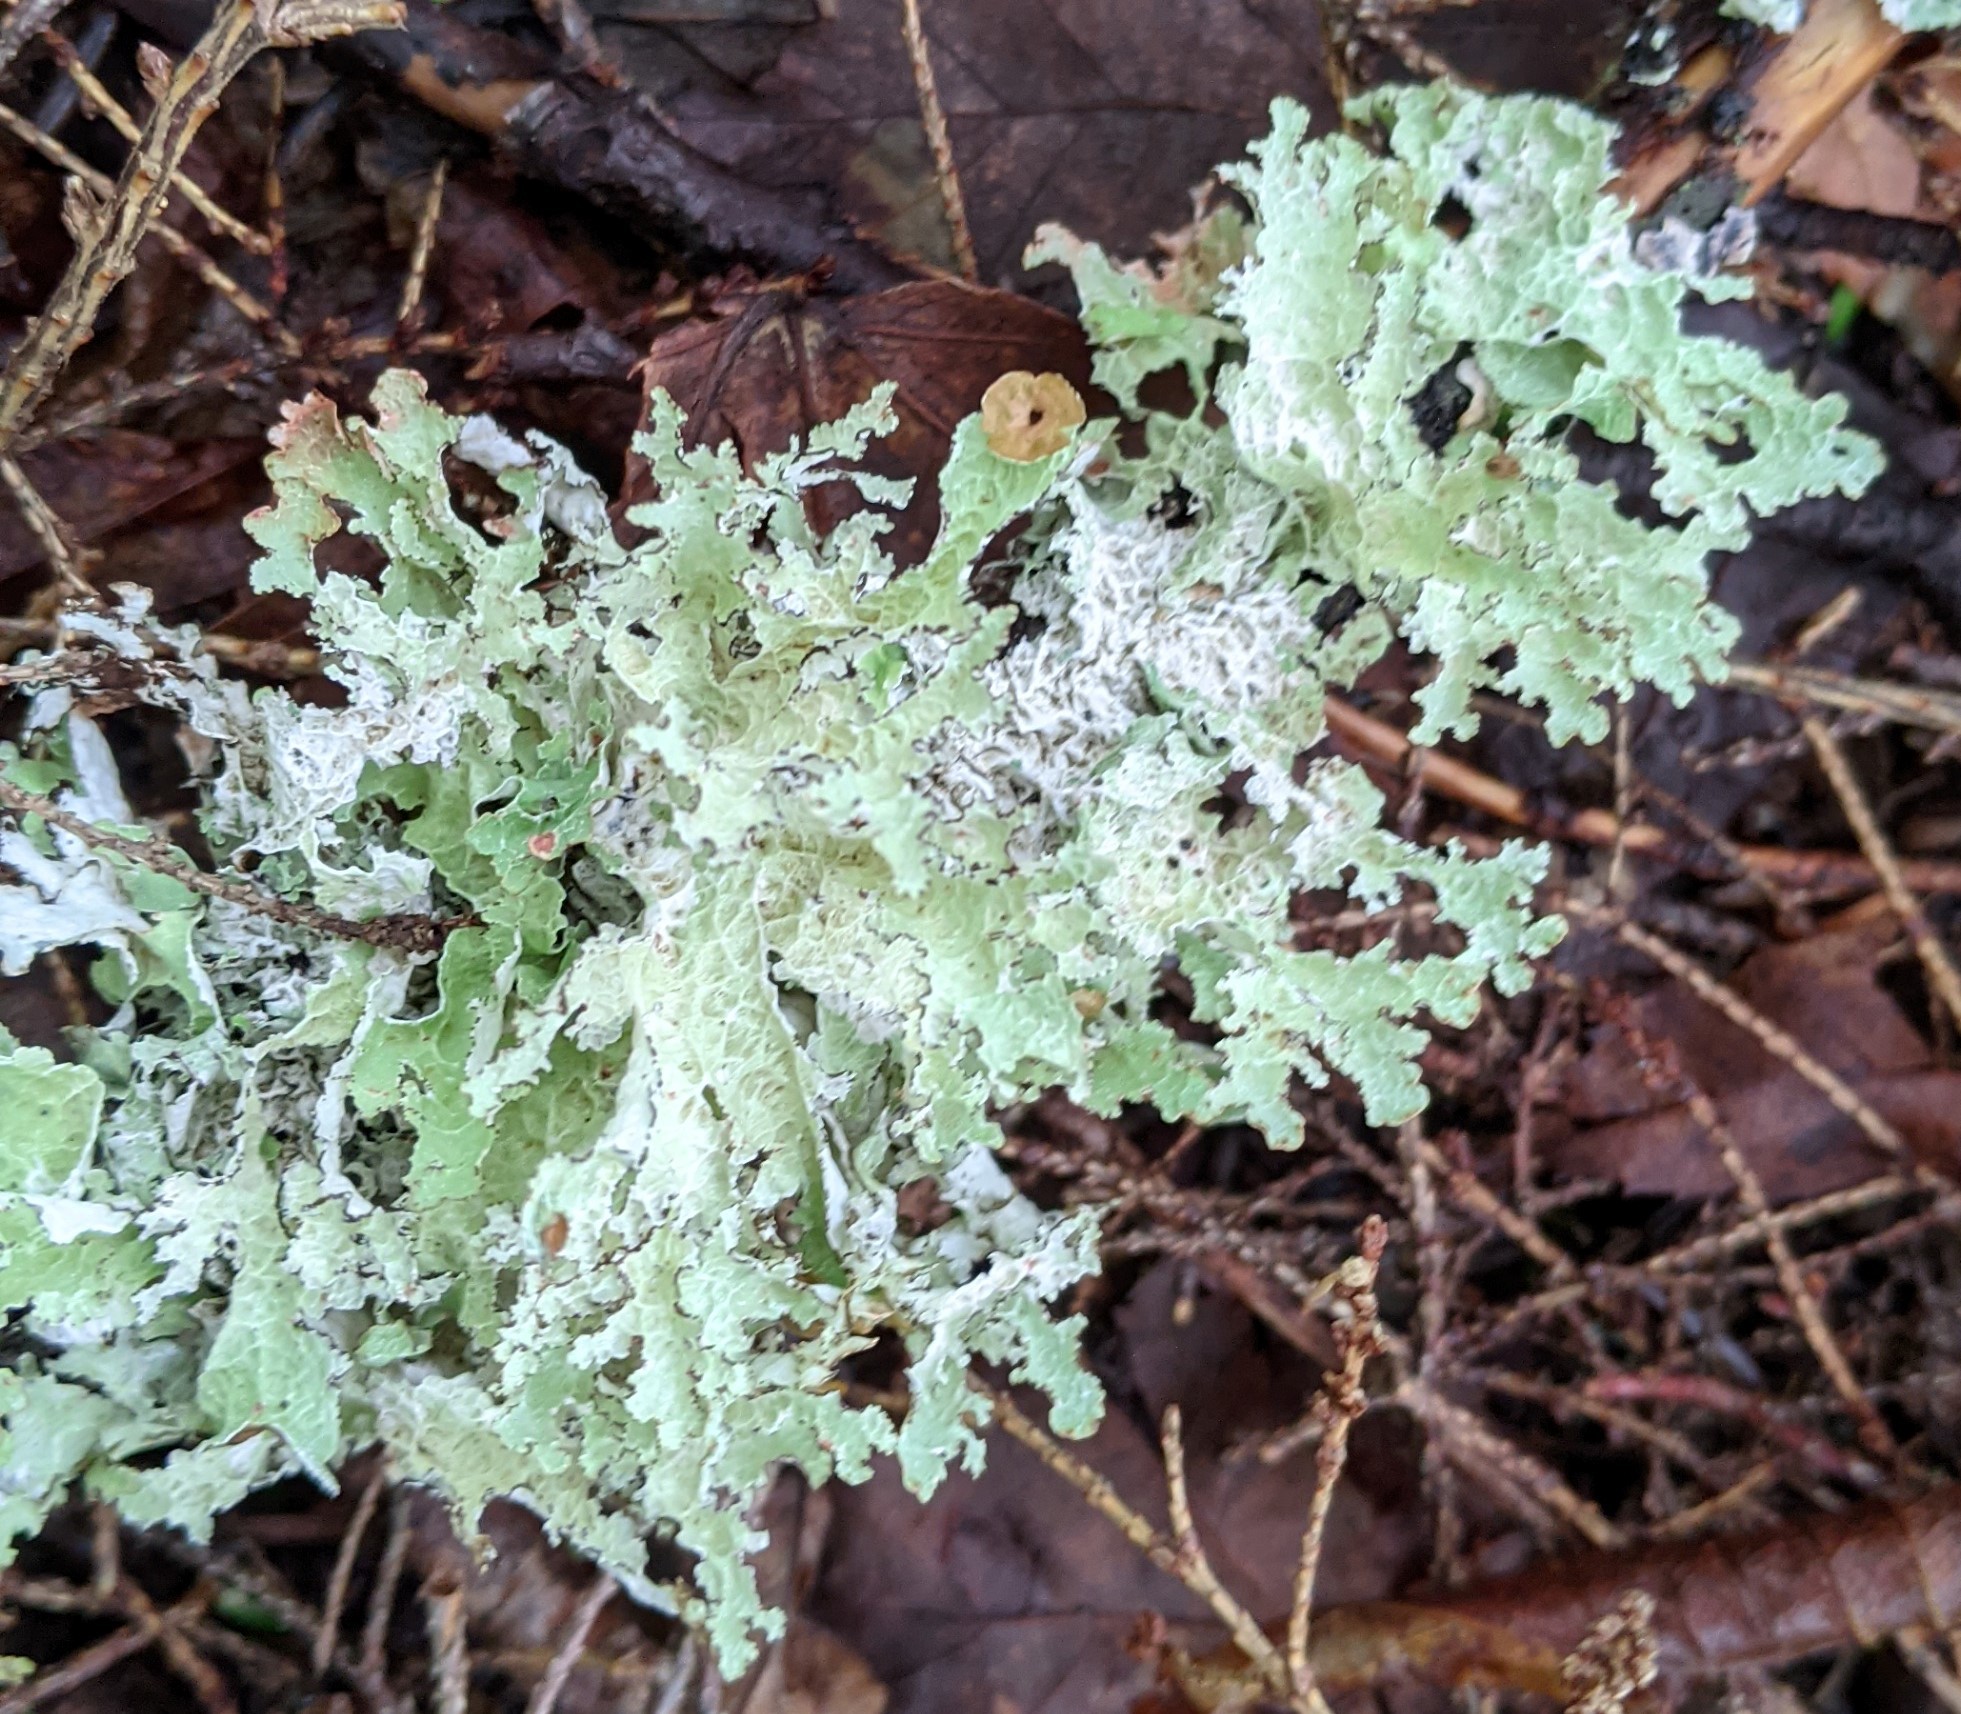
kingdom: Fungi
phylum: Ascomycota
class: Lecanoromycetes
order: Lecanorales
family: Parmeliaceae
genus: Platismatia
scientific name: Platismatia tuckermanii
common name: Crumpled rag lichen
